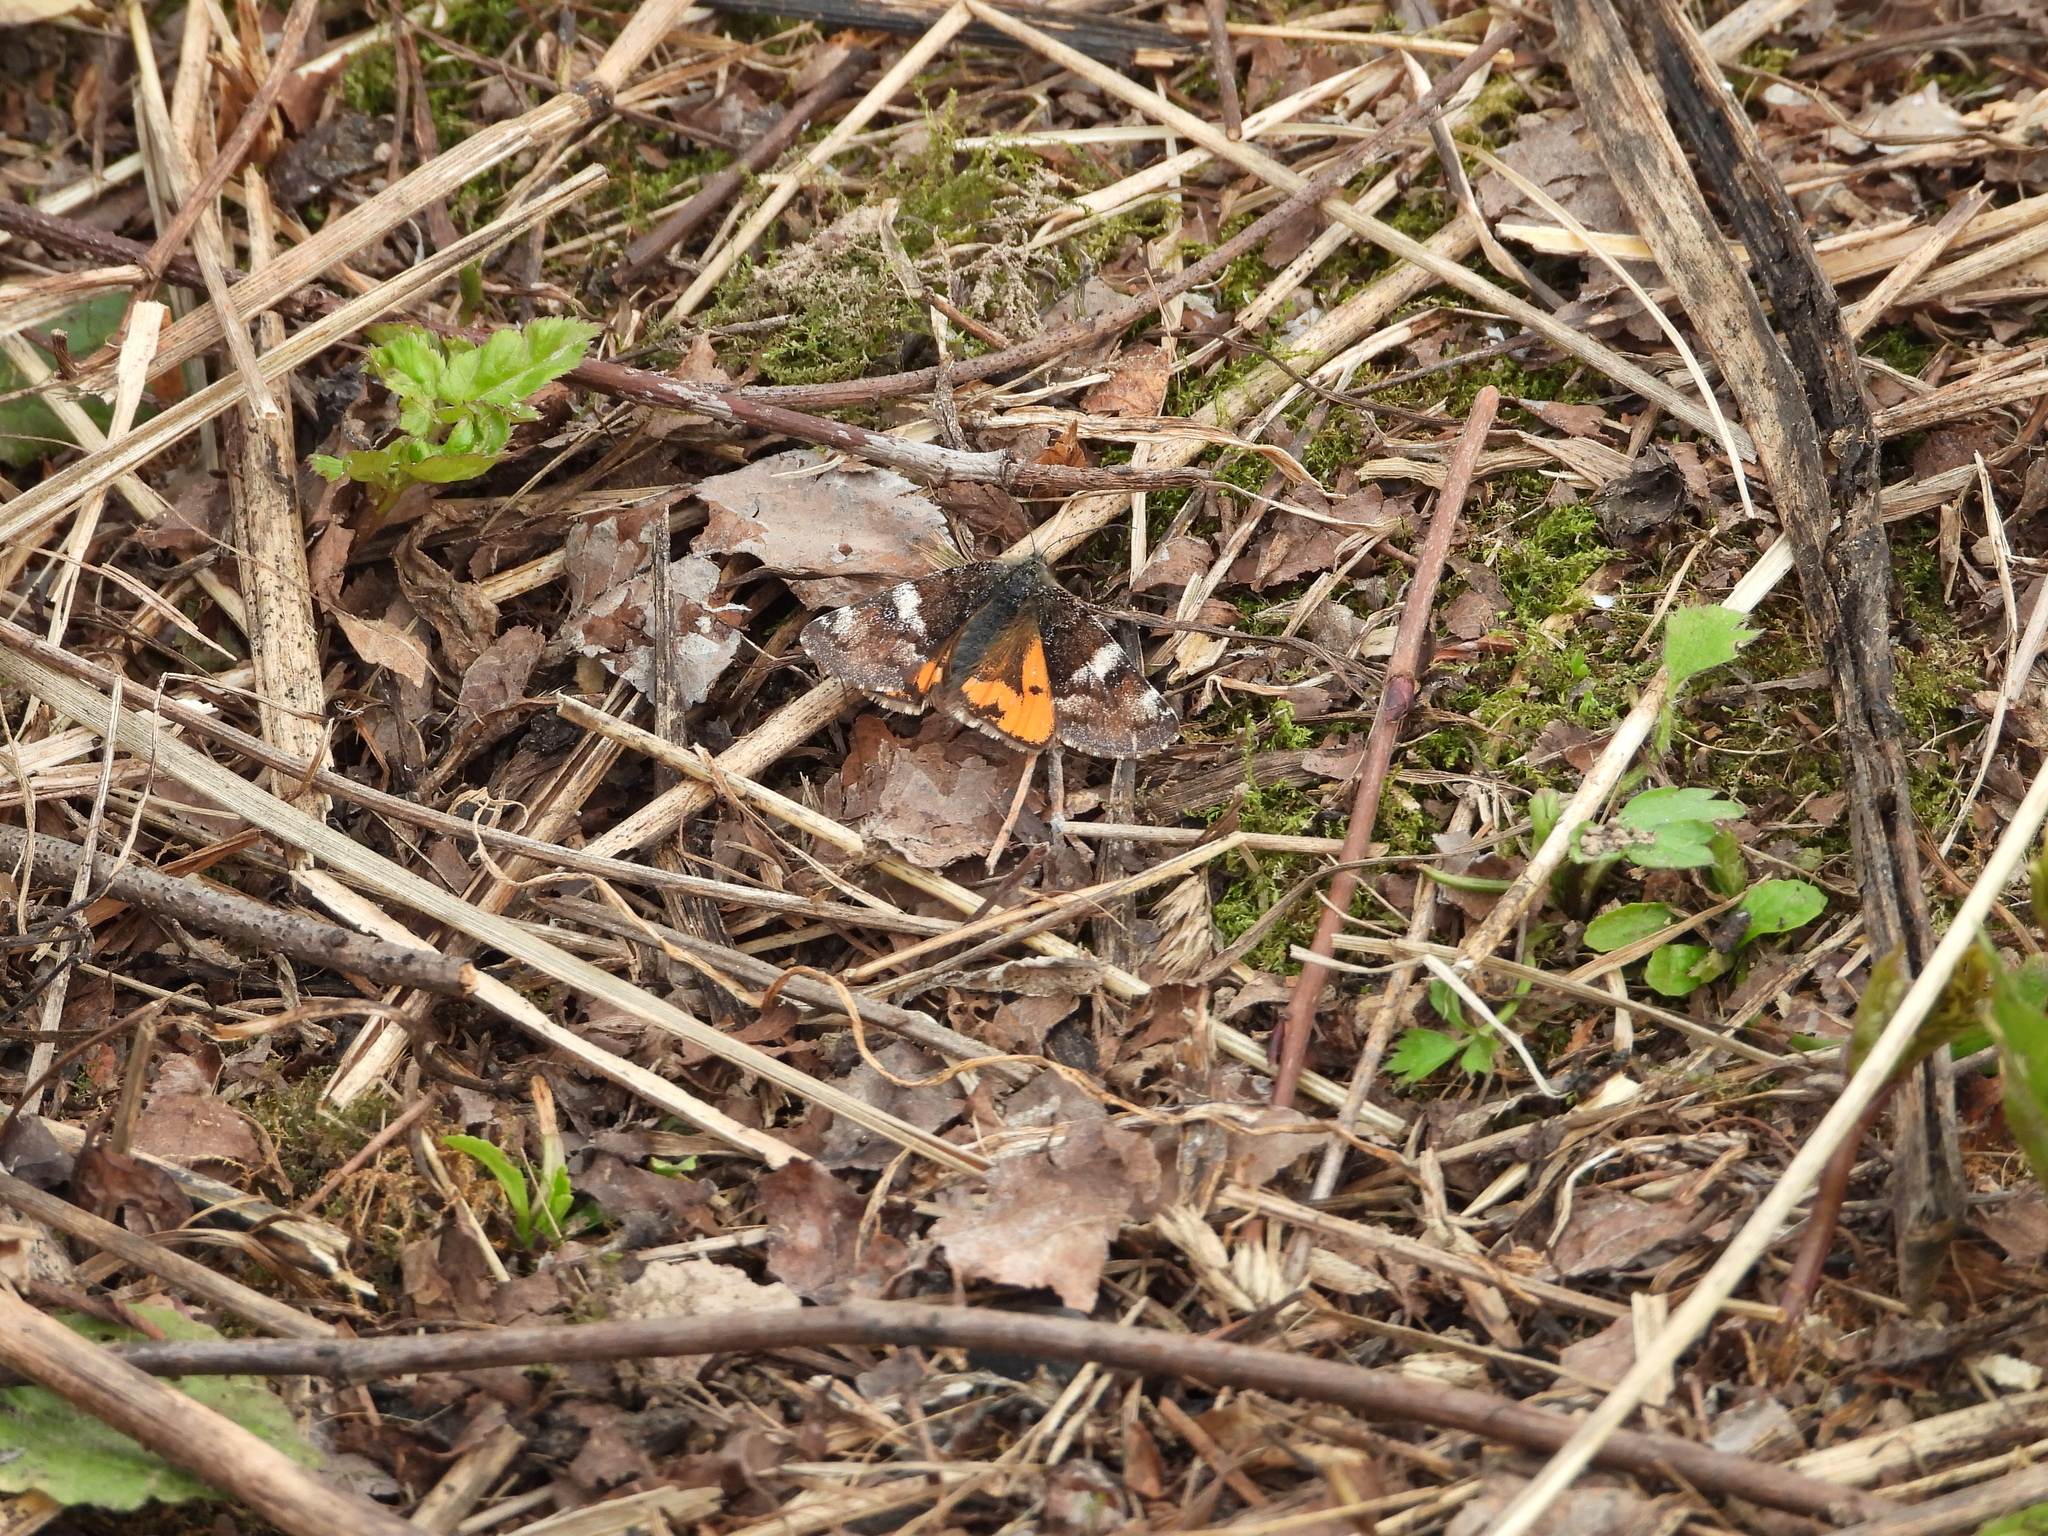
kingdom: Animalia
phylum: Arthropoda
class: Insecta
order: Lepidoptera
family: Geometridae
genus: Archiearis
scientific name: Archiearis parthenias
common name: Orange underwing
